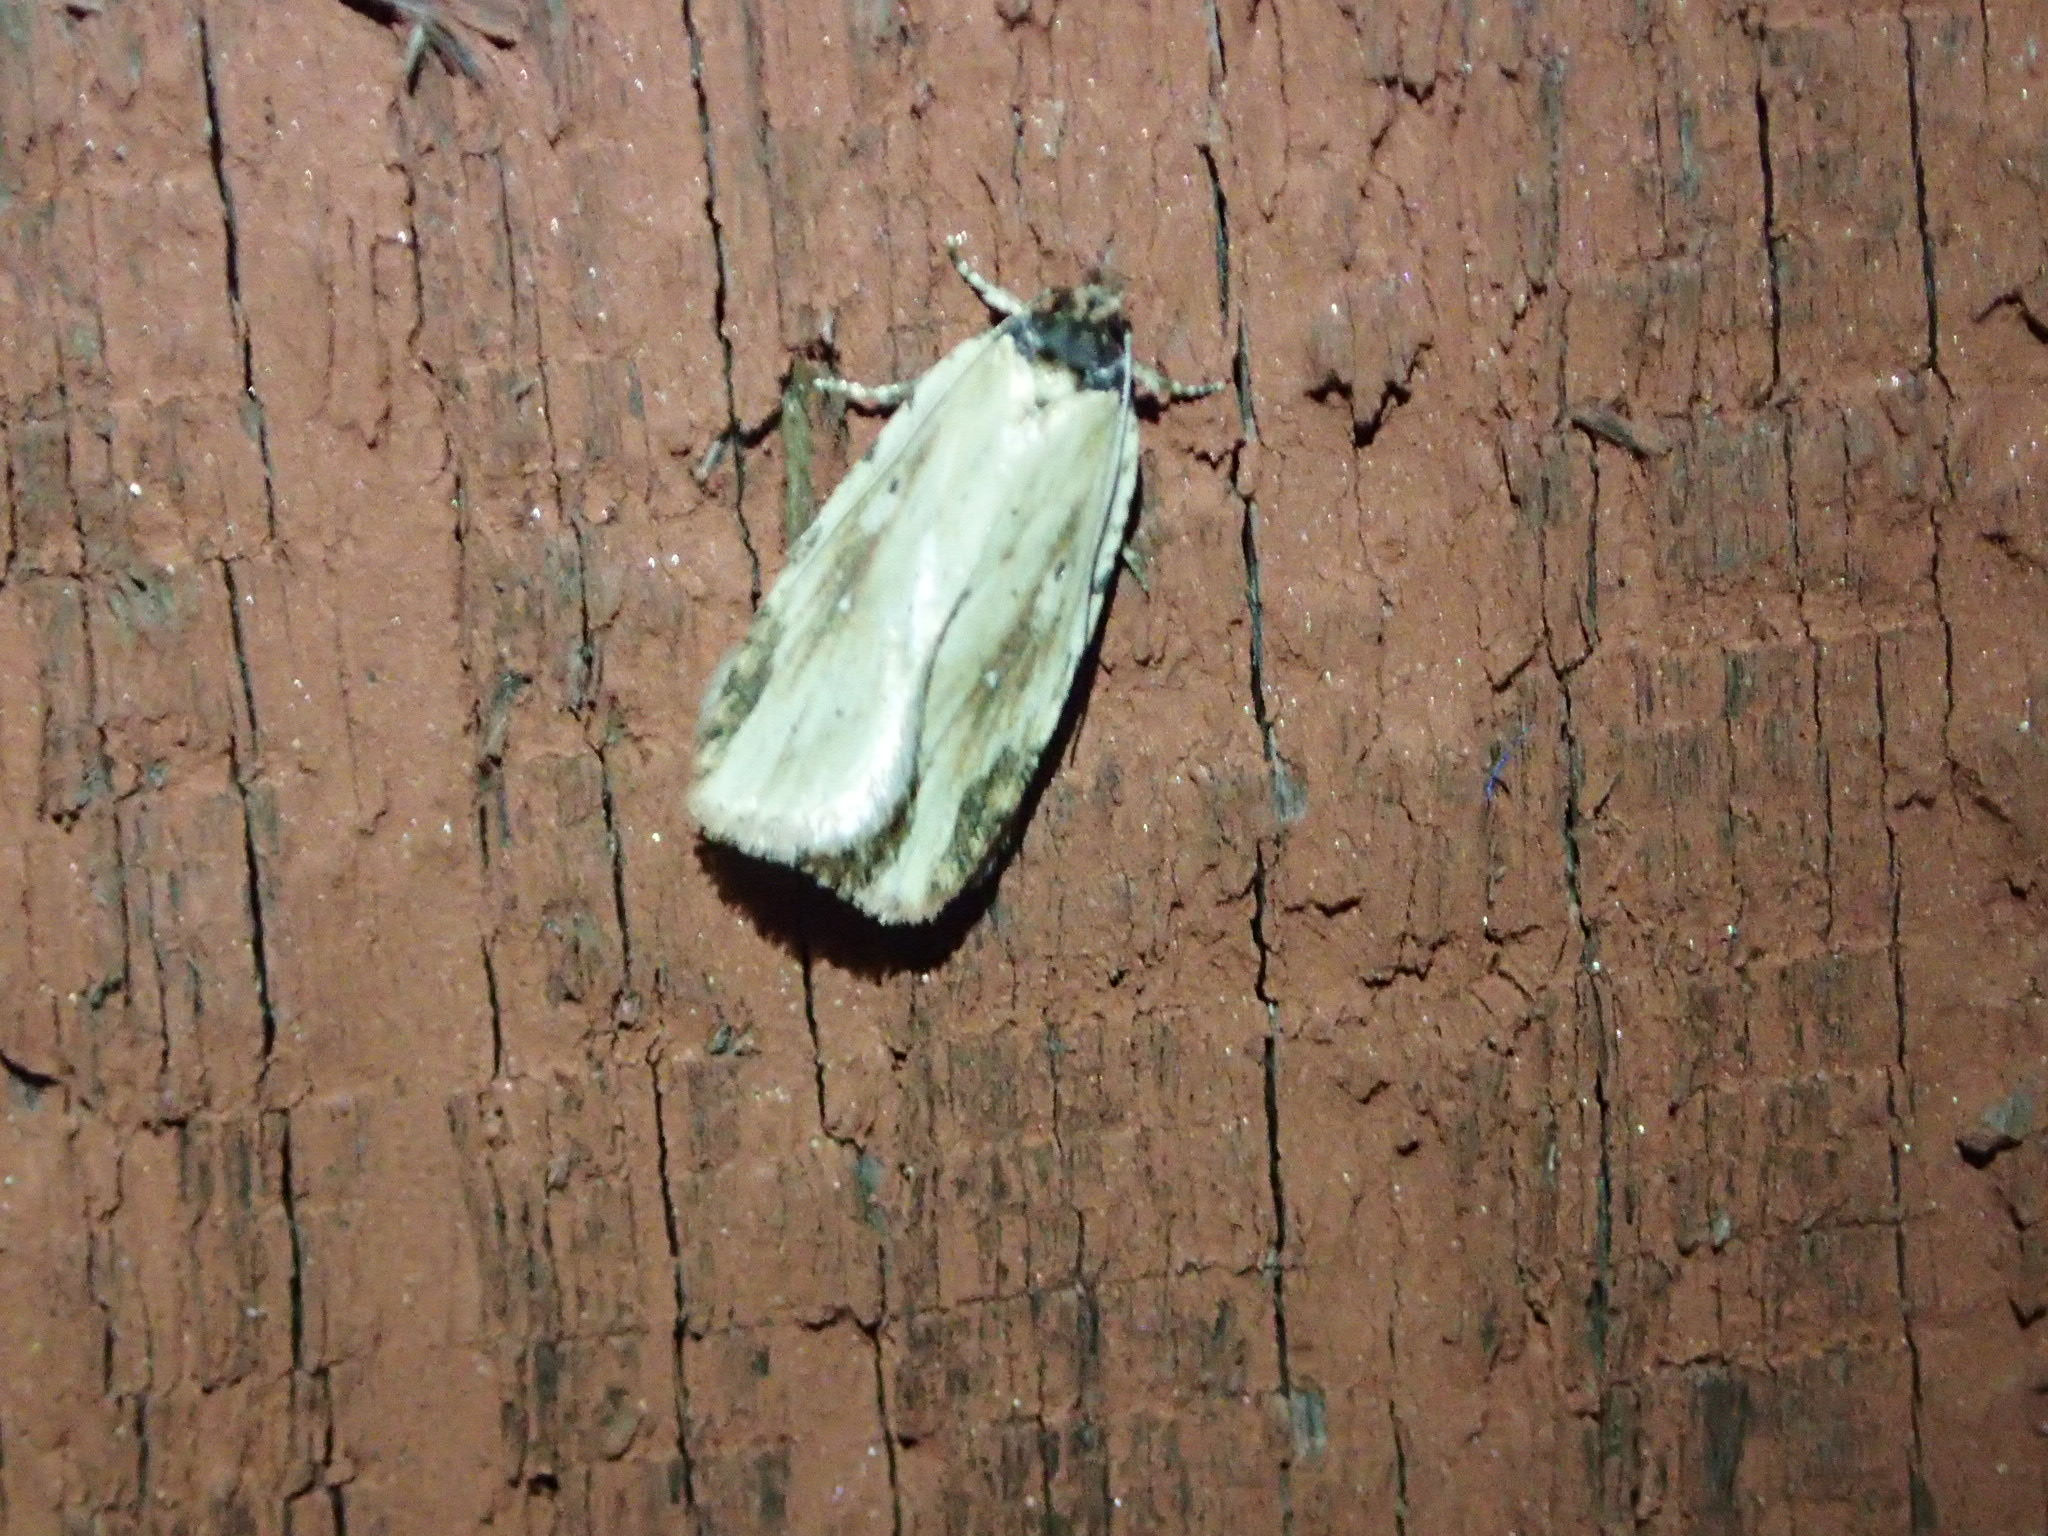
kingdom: Animalia
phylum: Arthropoda
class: Insecta
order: Lepidoptera
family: Depressariidae
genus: Agonopterix
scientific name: Agonopterix atrodorsella
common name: Beggartick leaffolder
